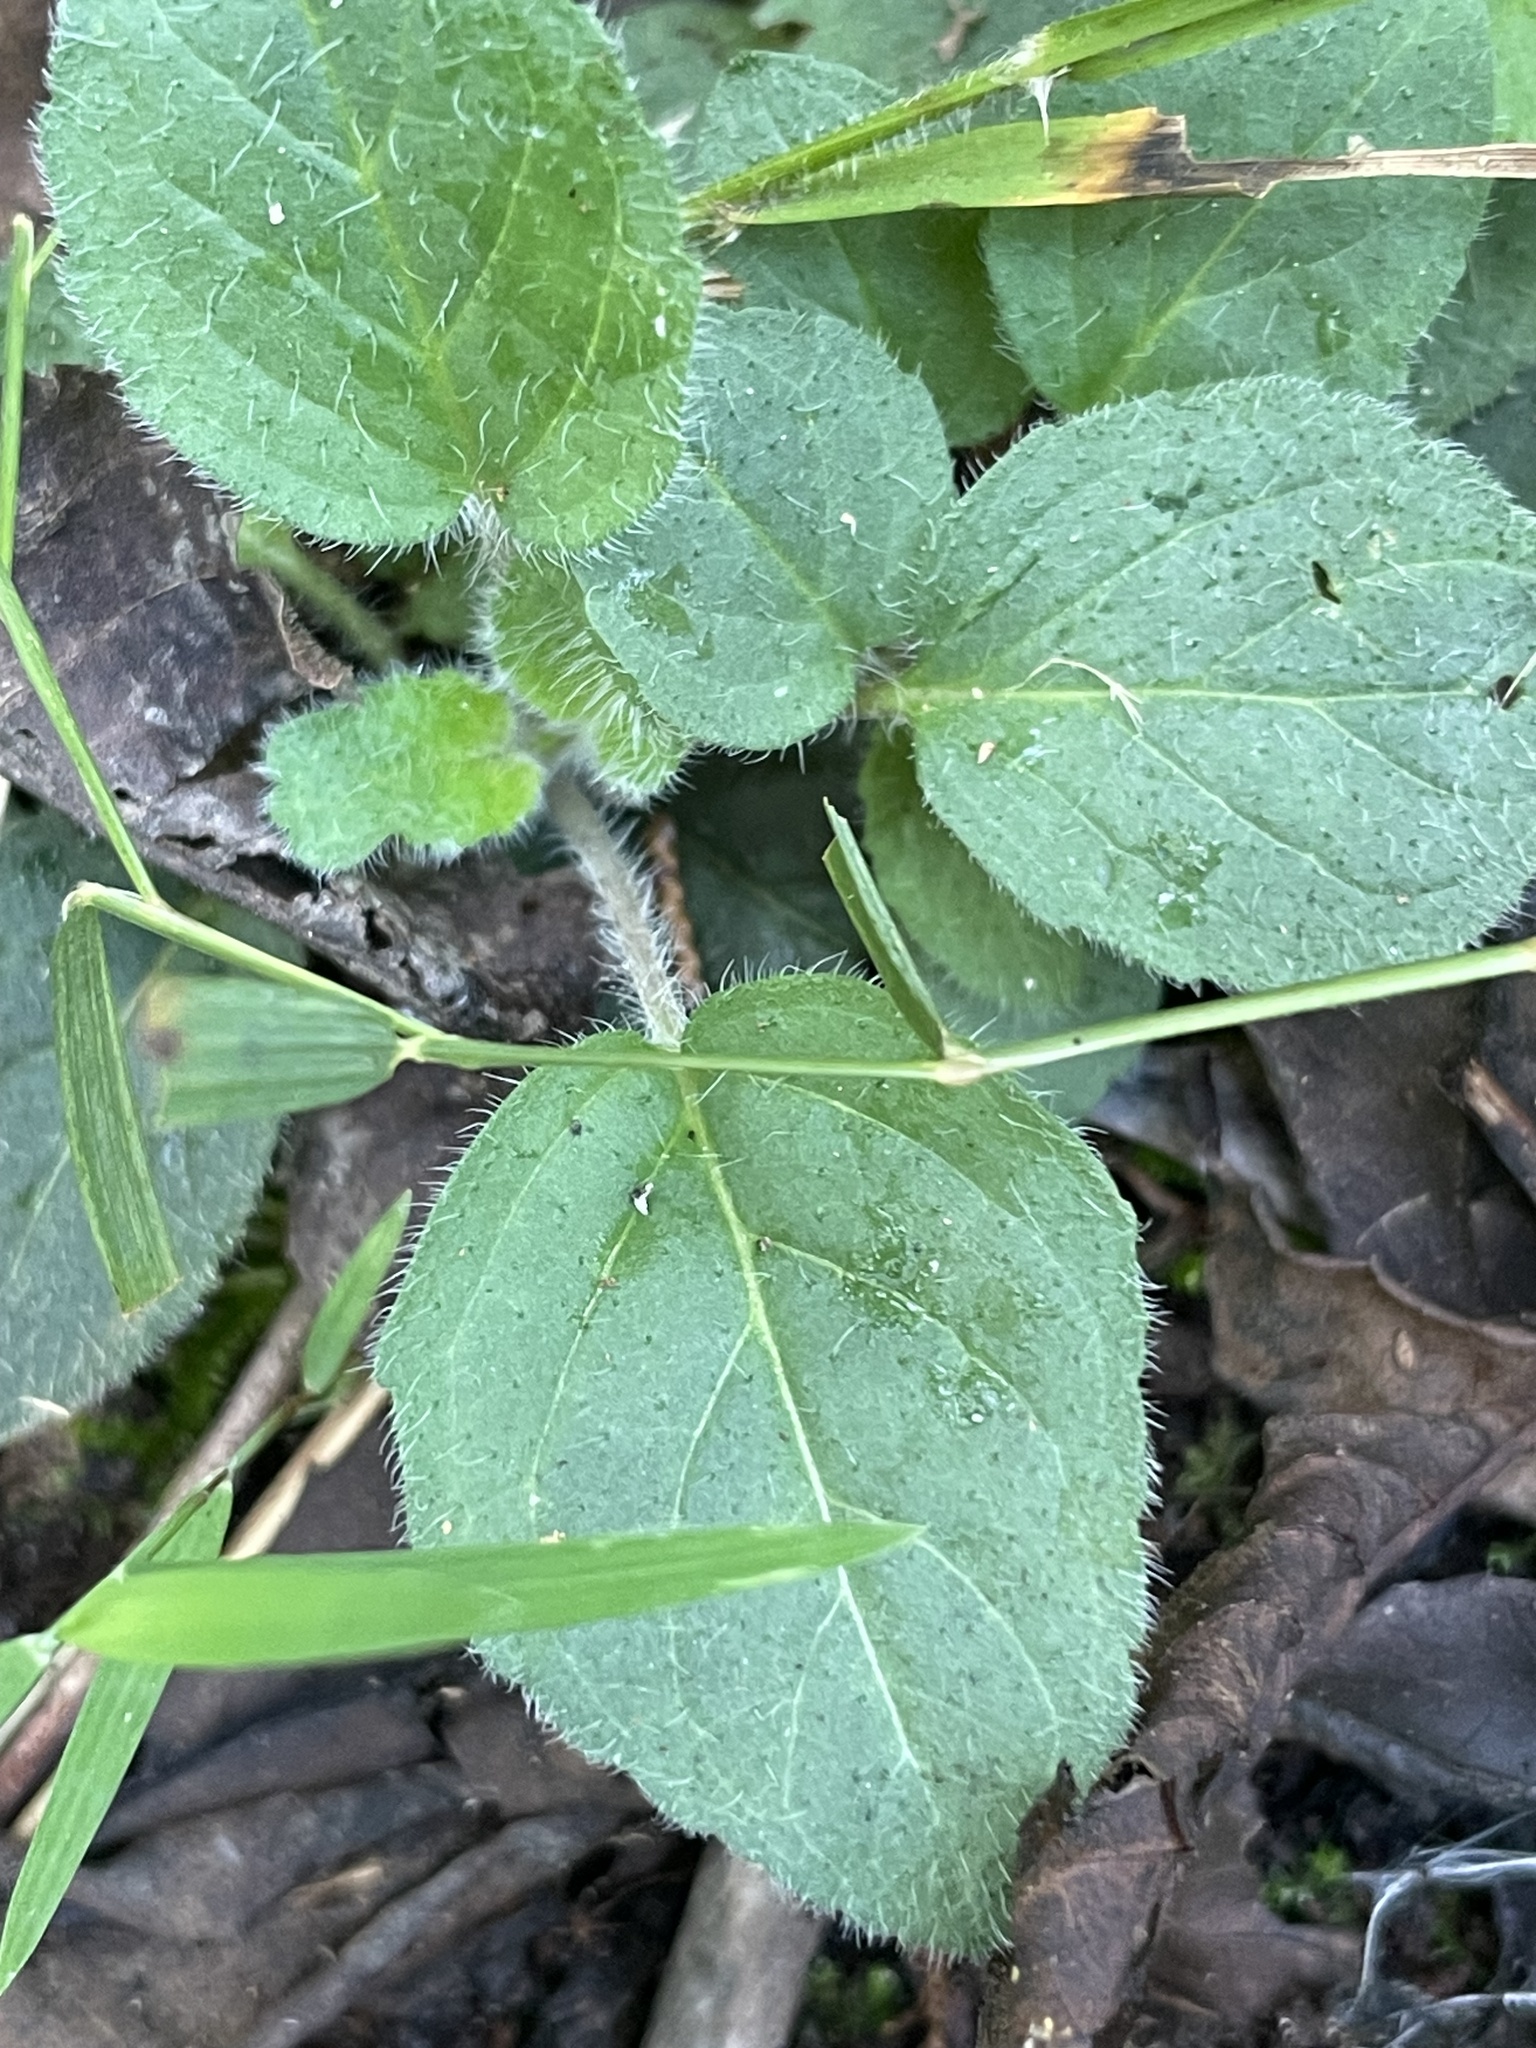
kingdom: Plantae
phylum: Tracheophyta
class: Magnoliopsida
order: Asterales
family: Asteraceae
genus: Chrysogonum
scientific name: Chrysogonum virginianum
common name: Golden-knee
